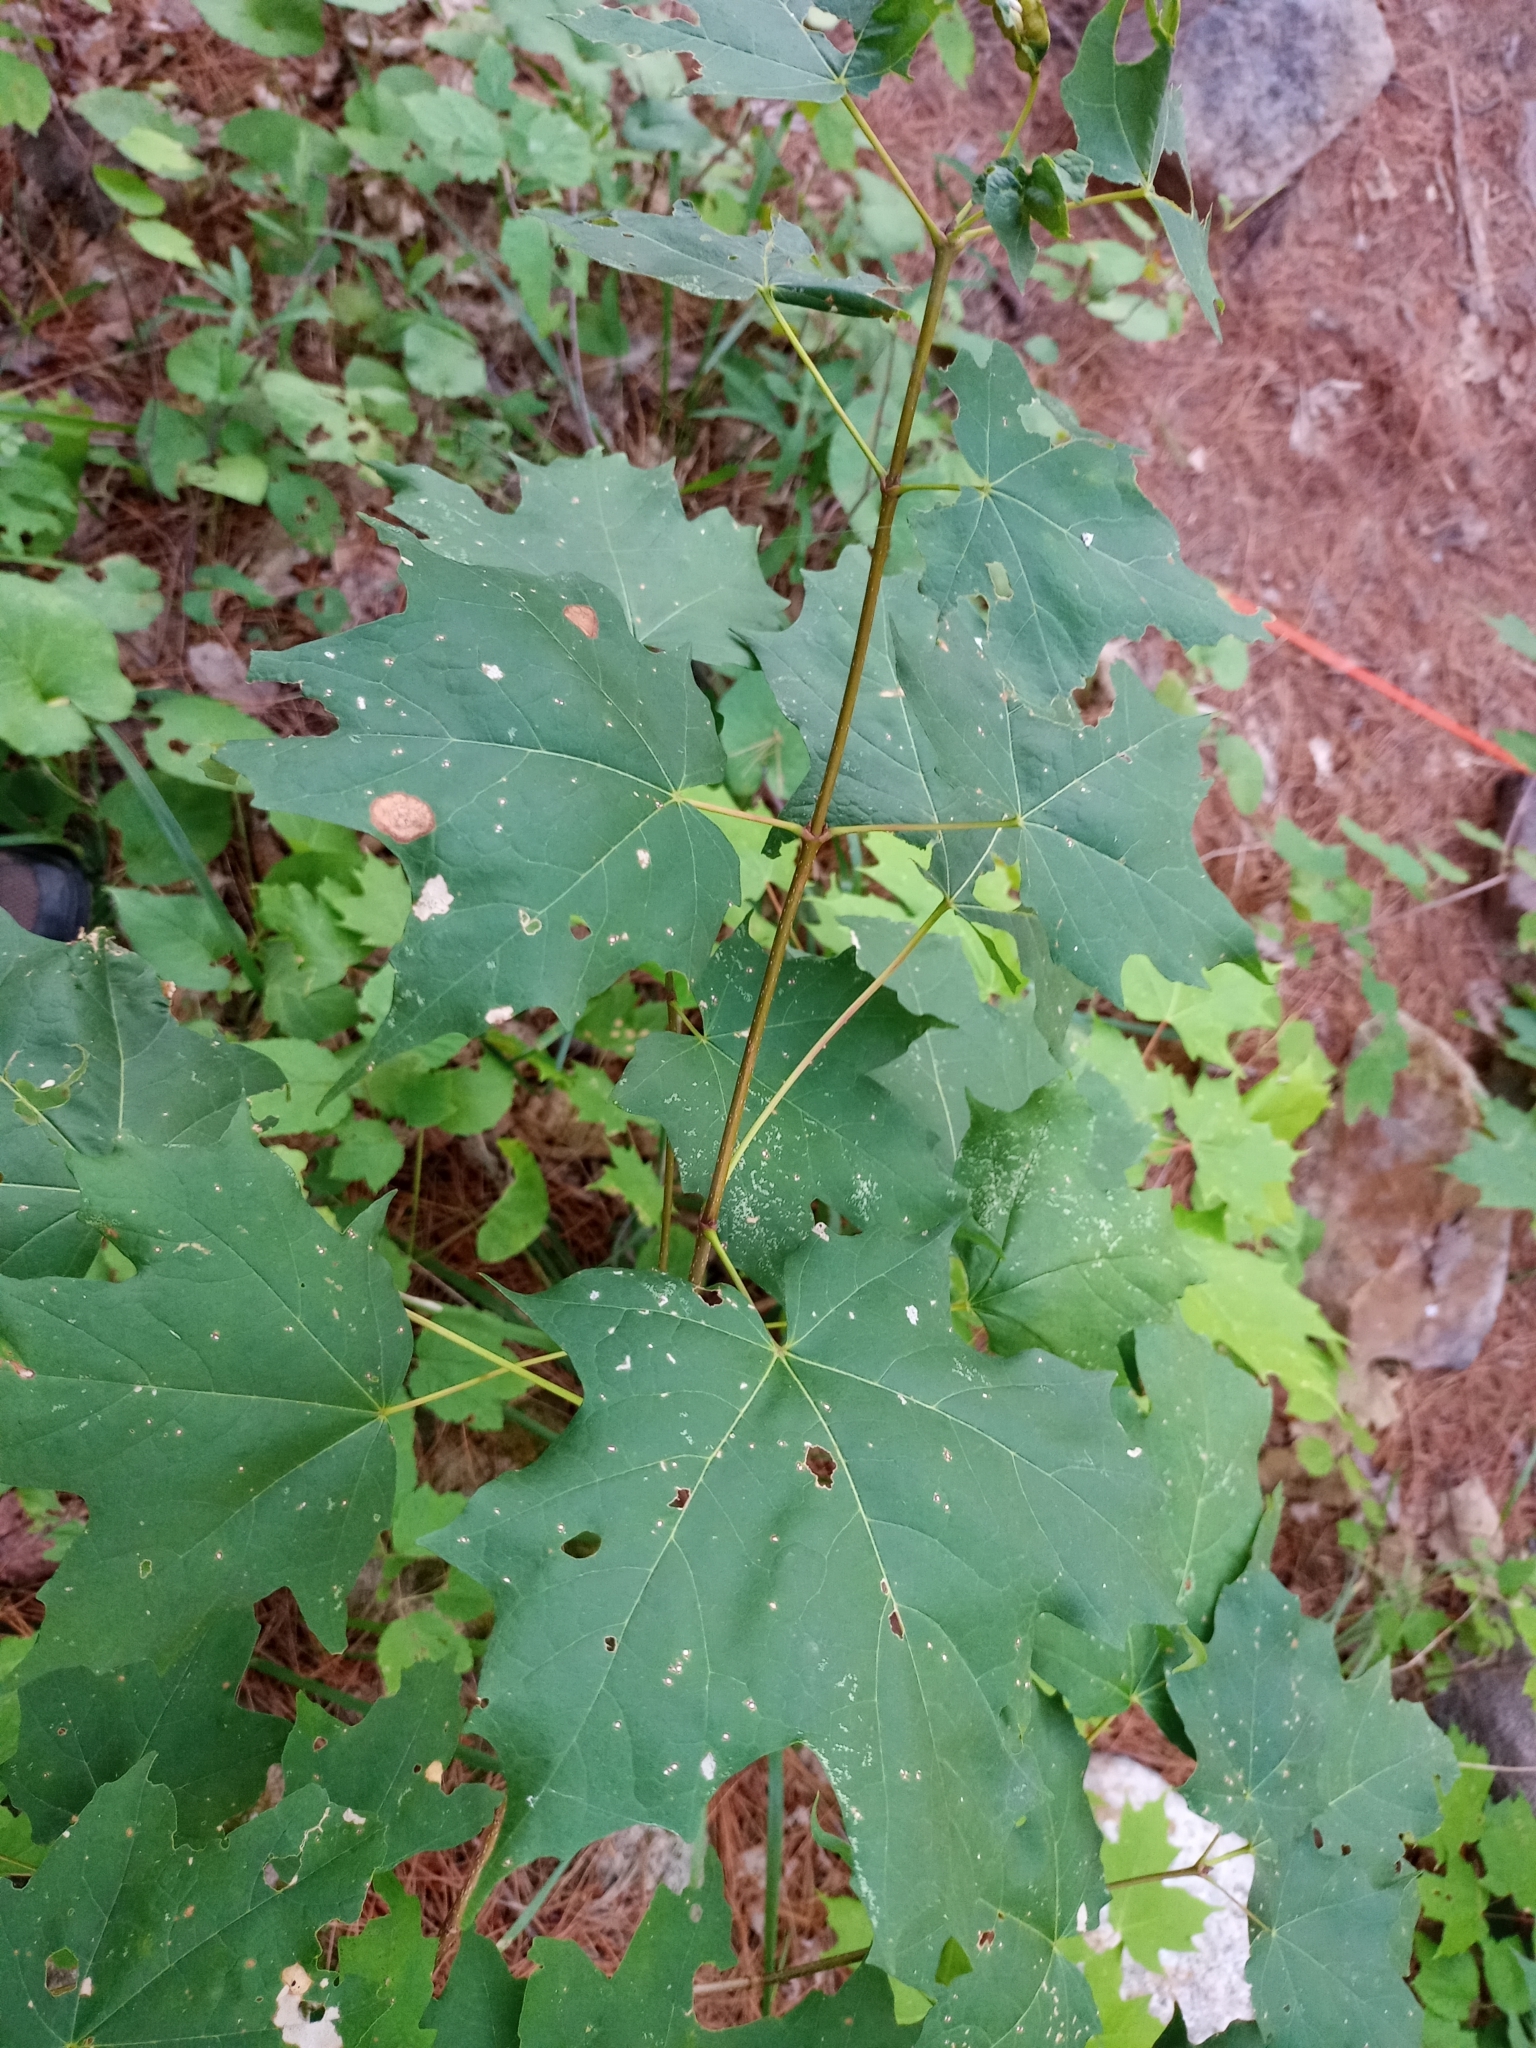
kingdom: Plantae
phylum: Tracheophyta
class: Magnoliopsida
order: Sapindales
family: Sapindaceae
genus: Acer
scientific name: Acer saccharum
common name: Sugar maple
